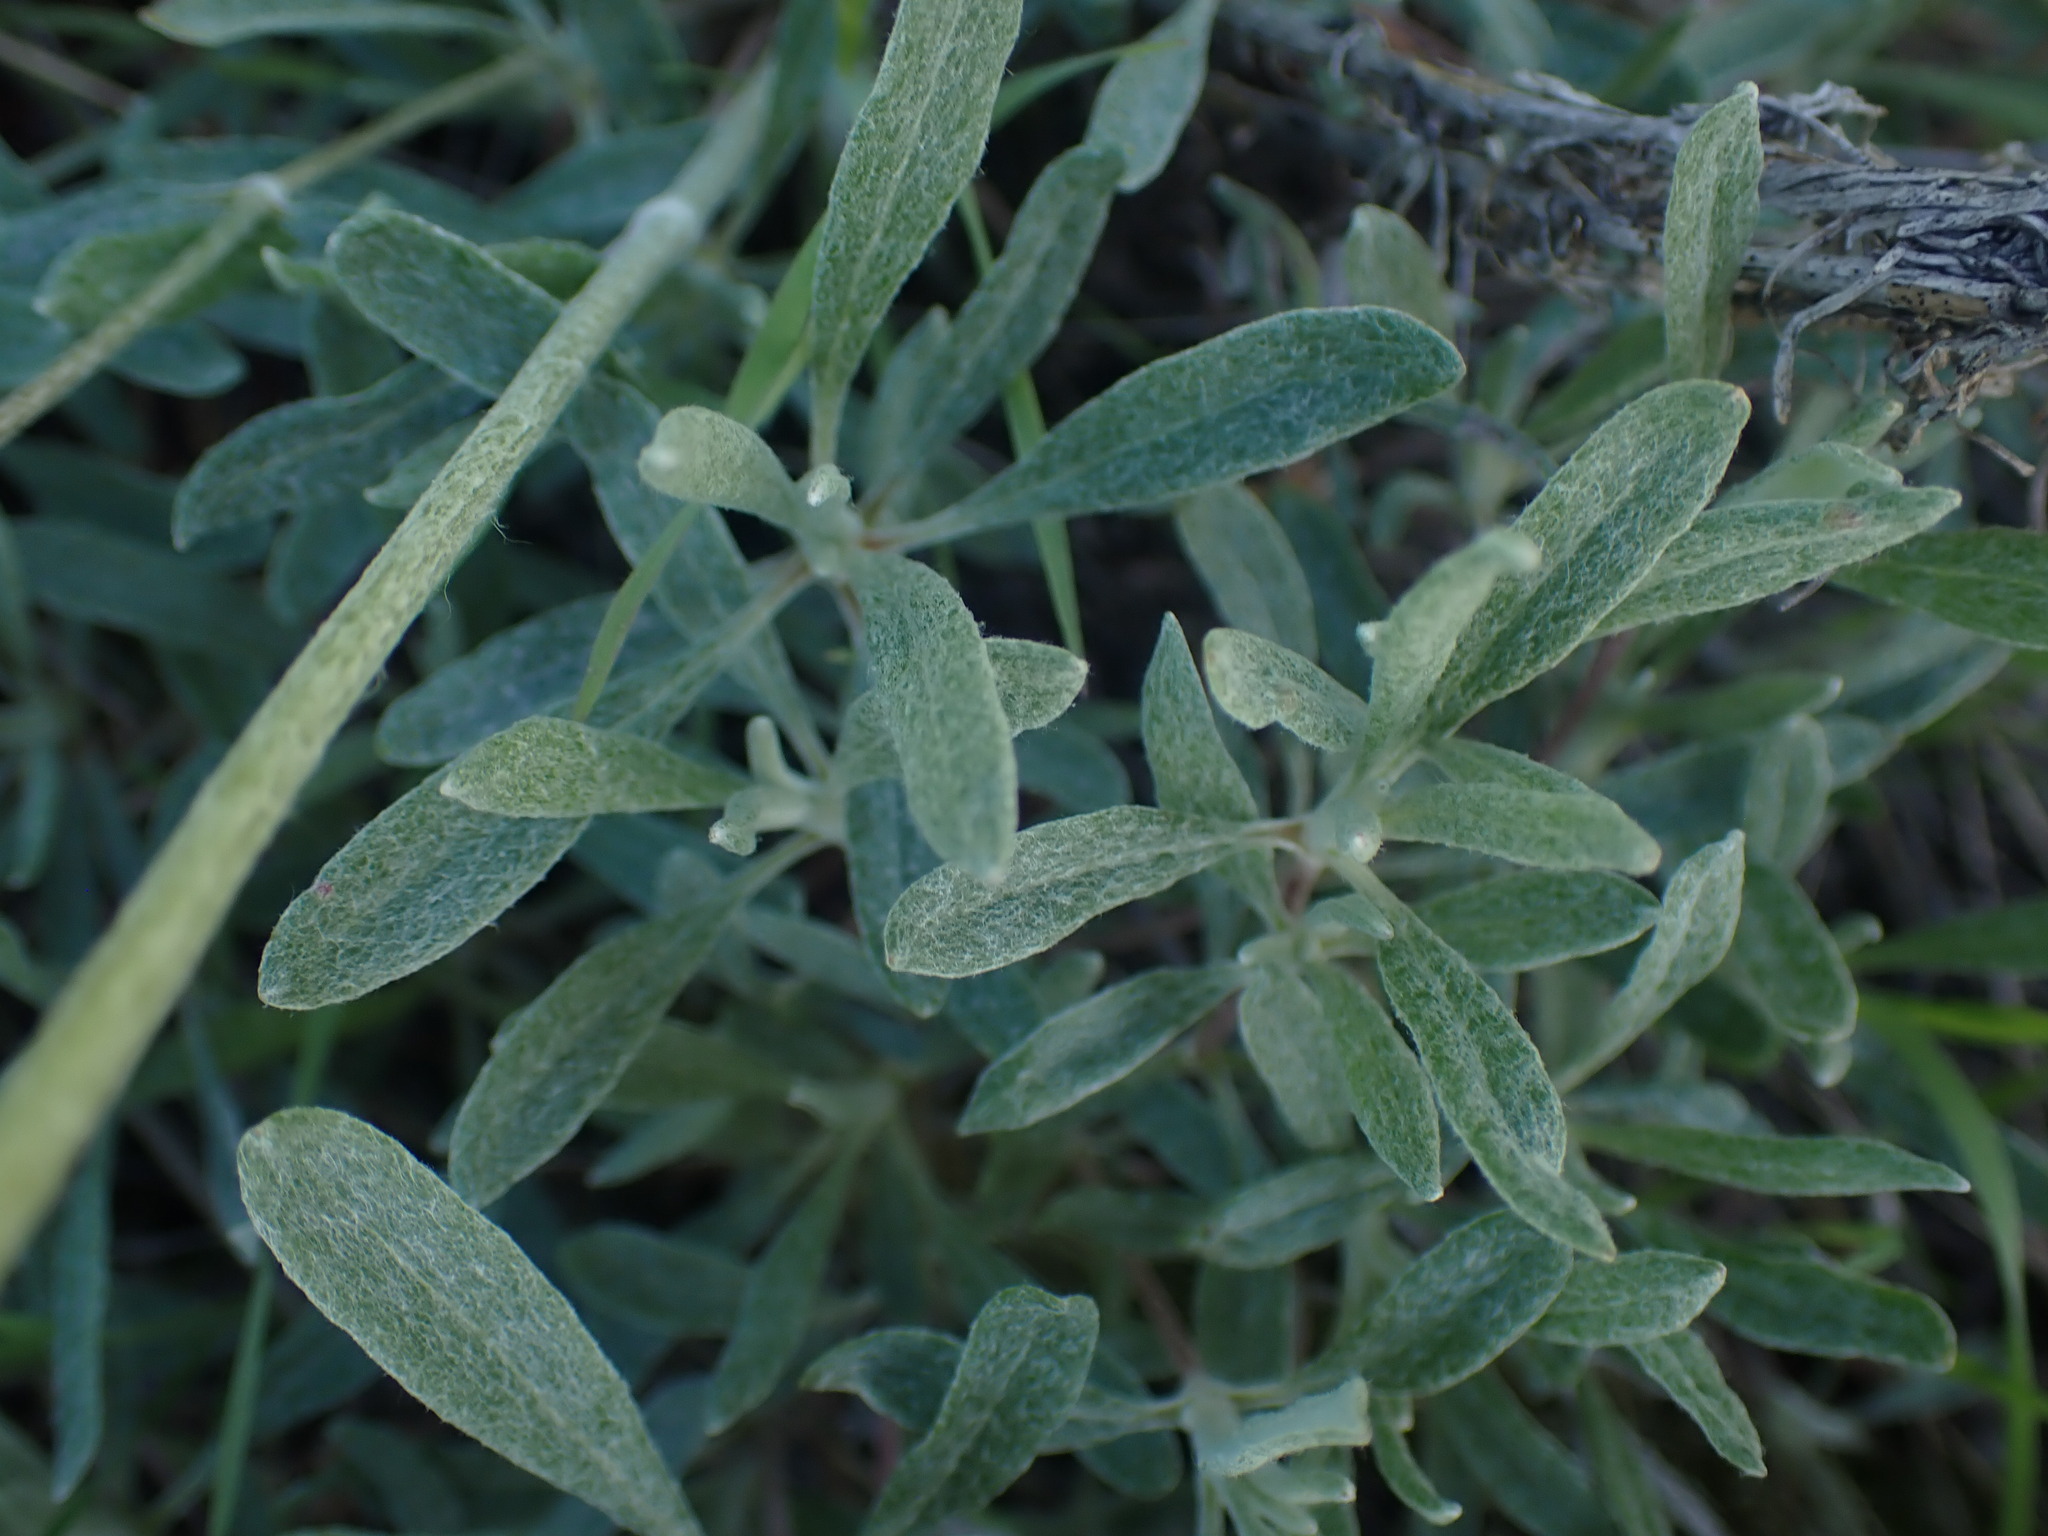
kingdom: Plantae
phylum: Tracheophyta
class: Magnoliopsida
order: Caryophyllales
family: Polygonaceae
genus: Eriogonum
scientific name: Eriogonum heracleoides
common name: Wyeth's buckwheat
